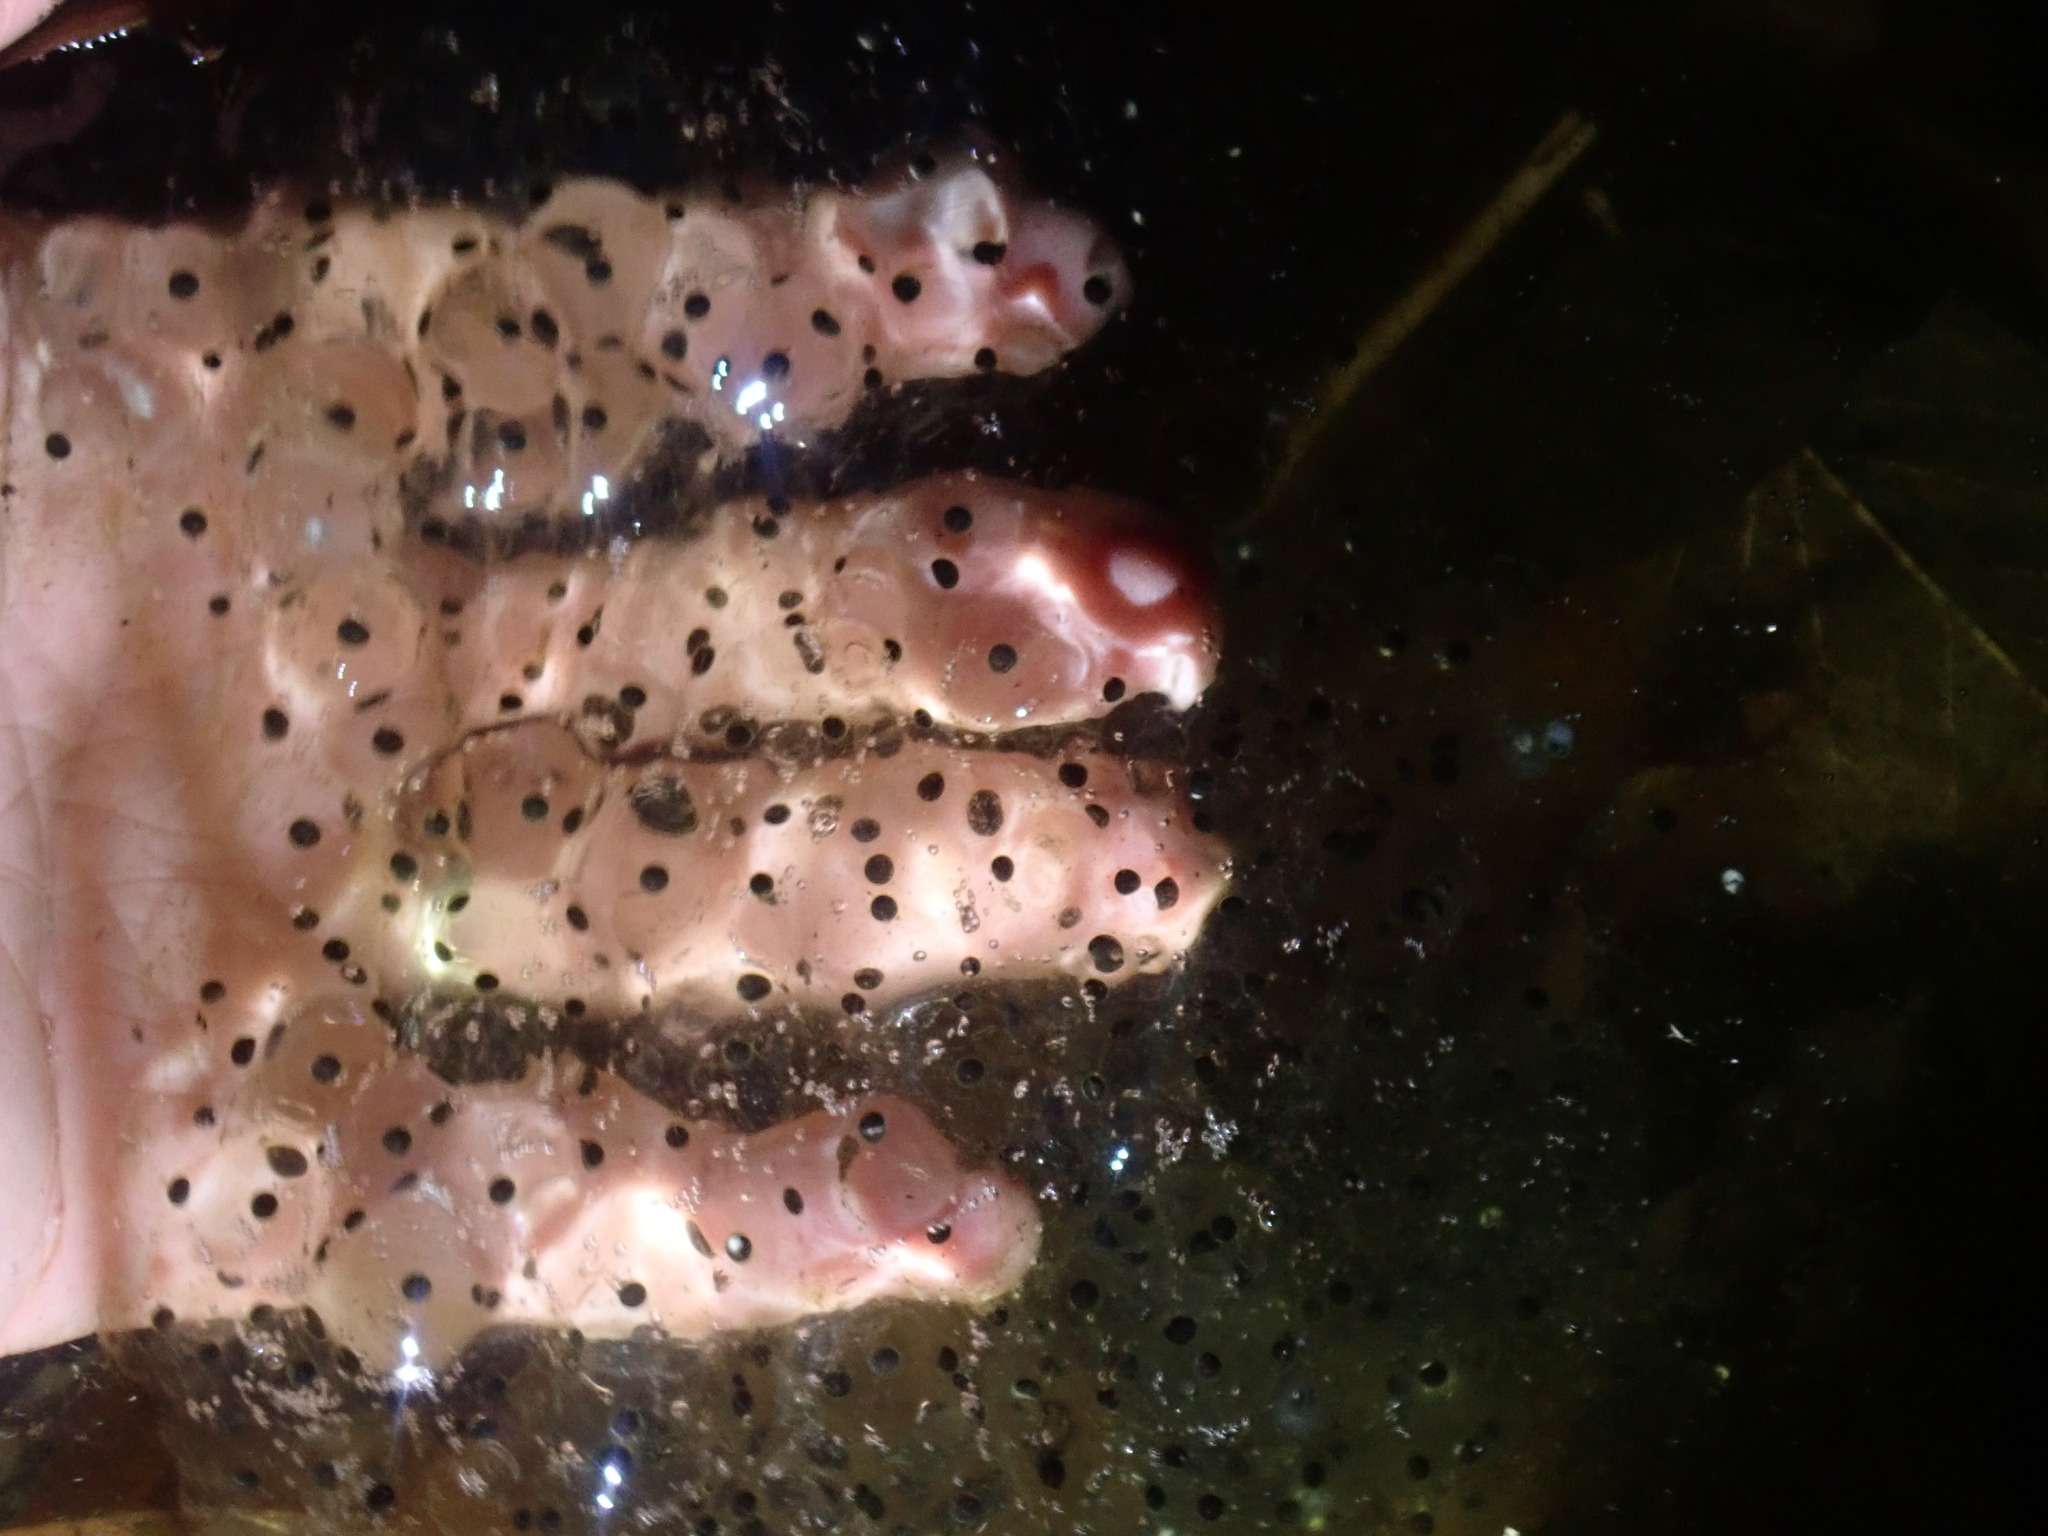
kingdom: Animalia
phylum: Chordata
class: Amphibia
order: Anura
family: Ranidae
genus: Lithobates
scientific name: Lithobates sylvaticus
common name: Wood frog
